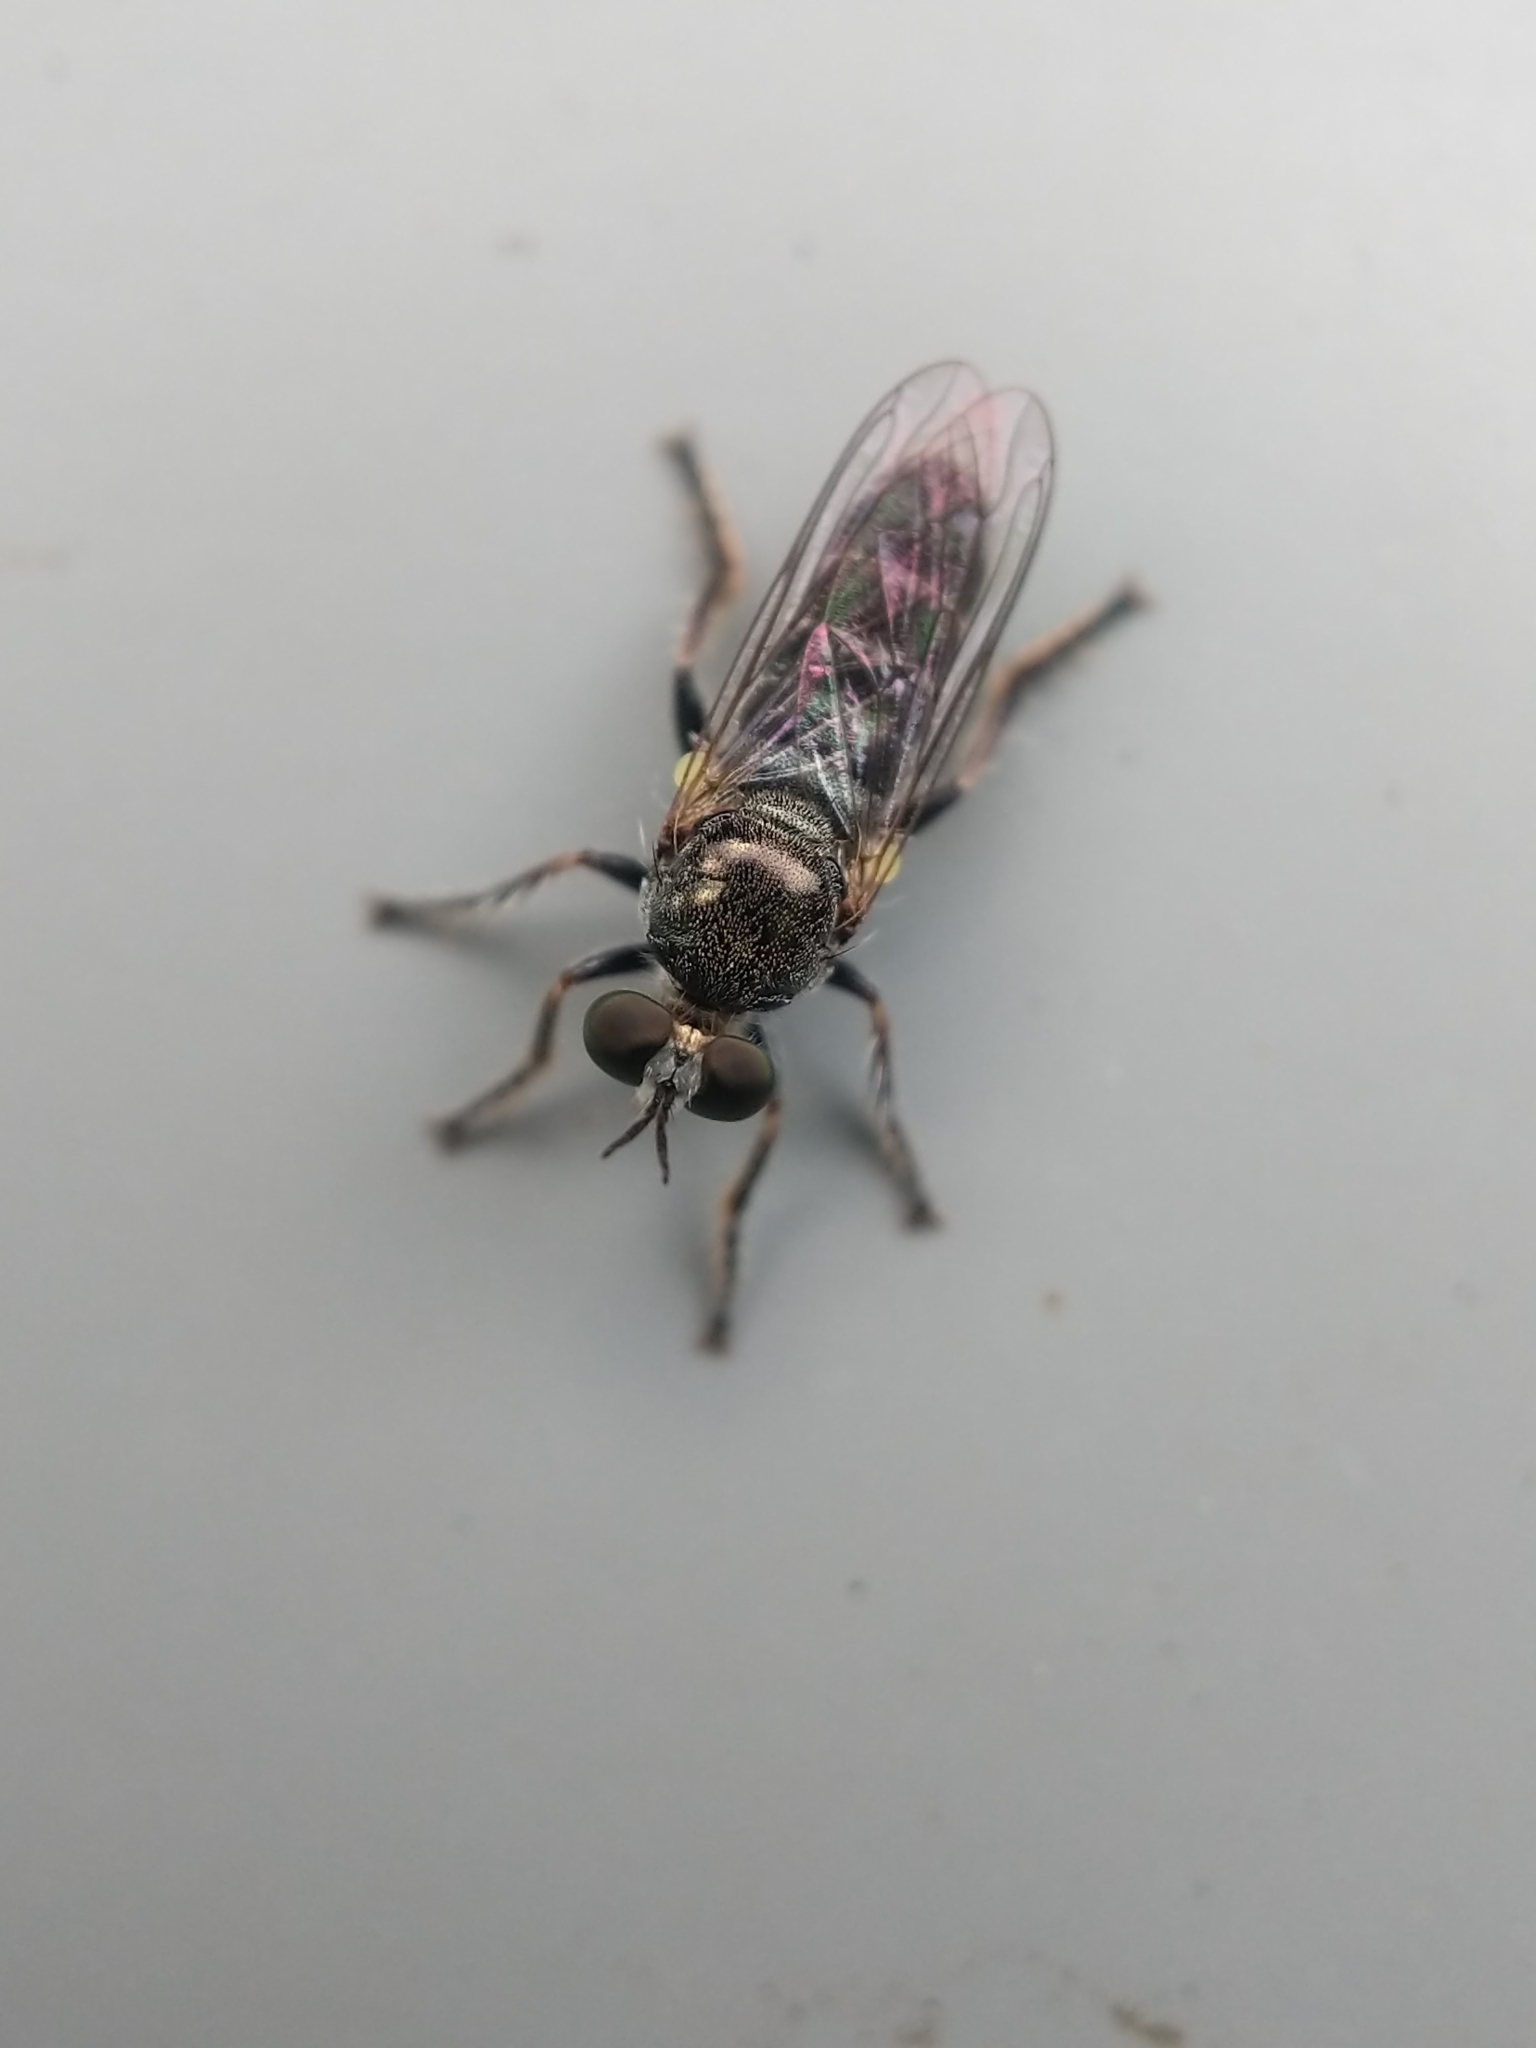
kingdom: Animalia
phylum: Arthropoda
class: Insecta
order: Diptera
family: Asilidae
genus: Atomosia
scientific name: Atomosia puella
